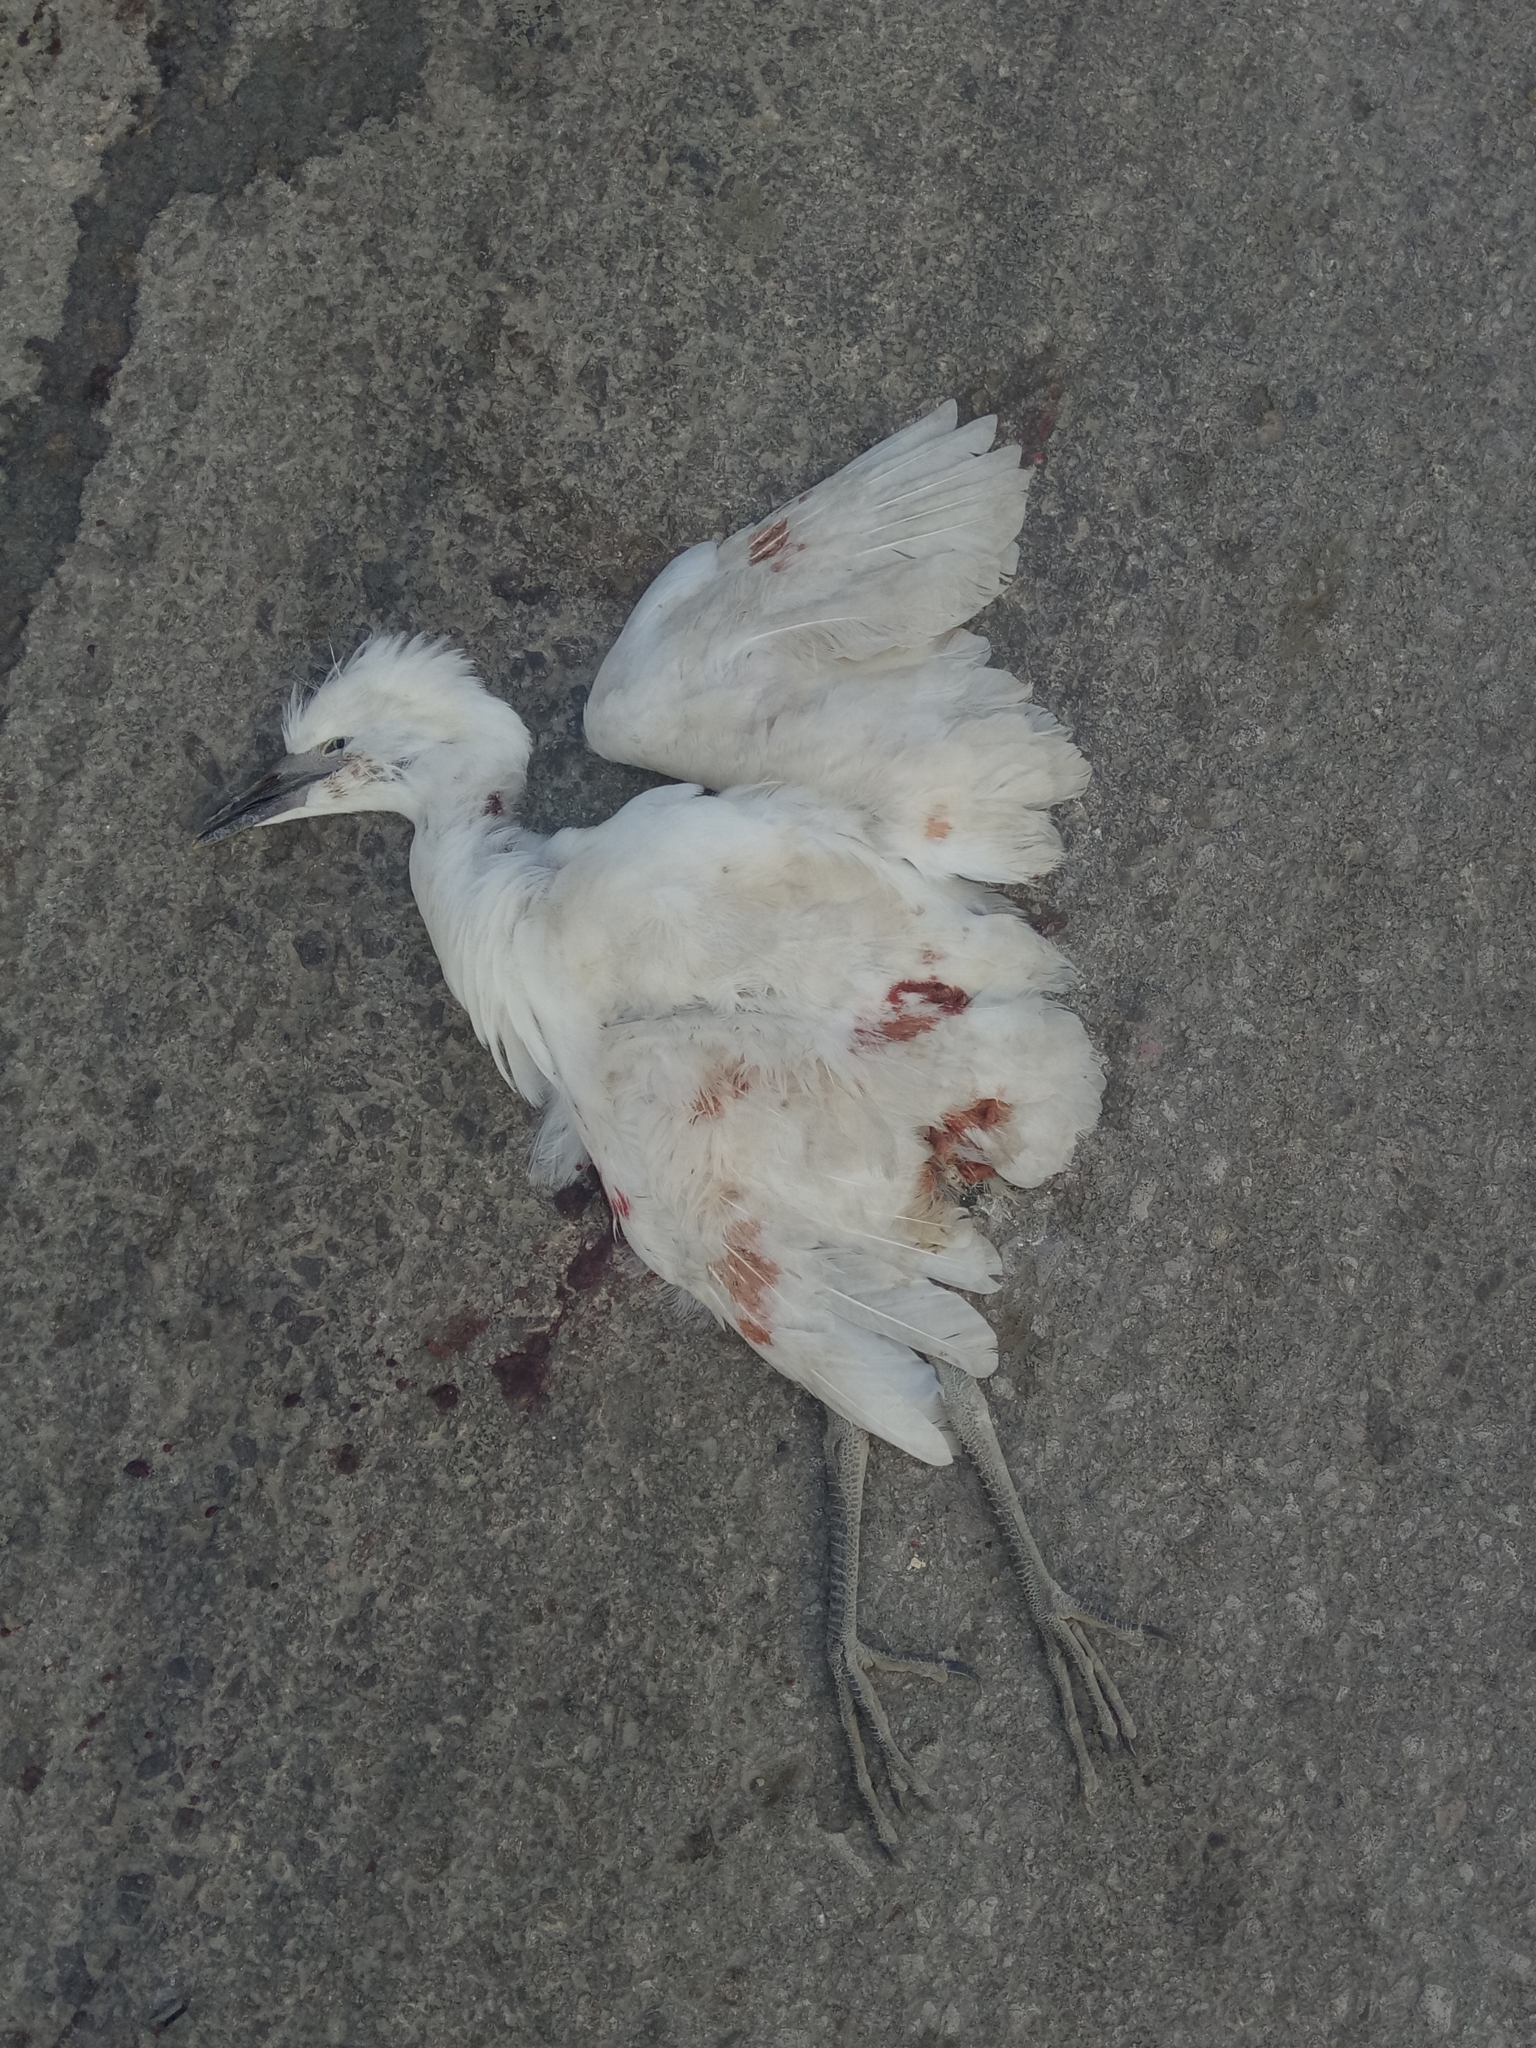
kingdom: Animalia
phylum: Chordata
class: Aves
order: Pelecaniformes
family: Ardeidae
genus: Bubulcus
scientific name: Bubulcus ibis
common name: Cattle egret
